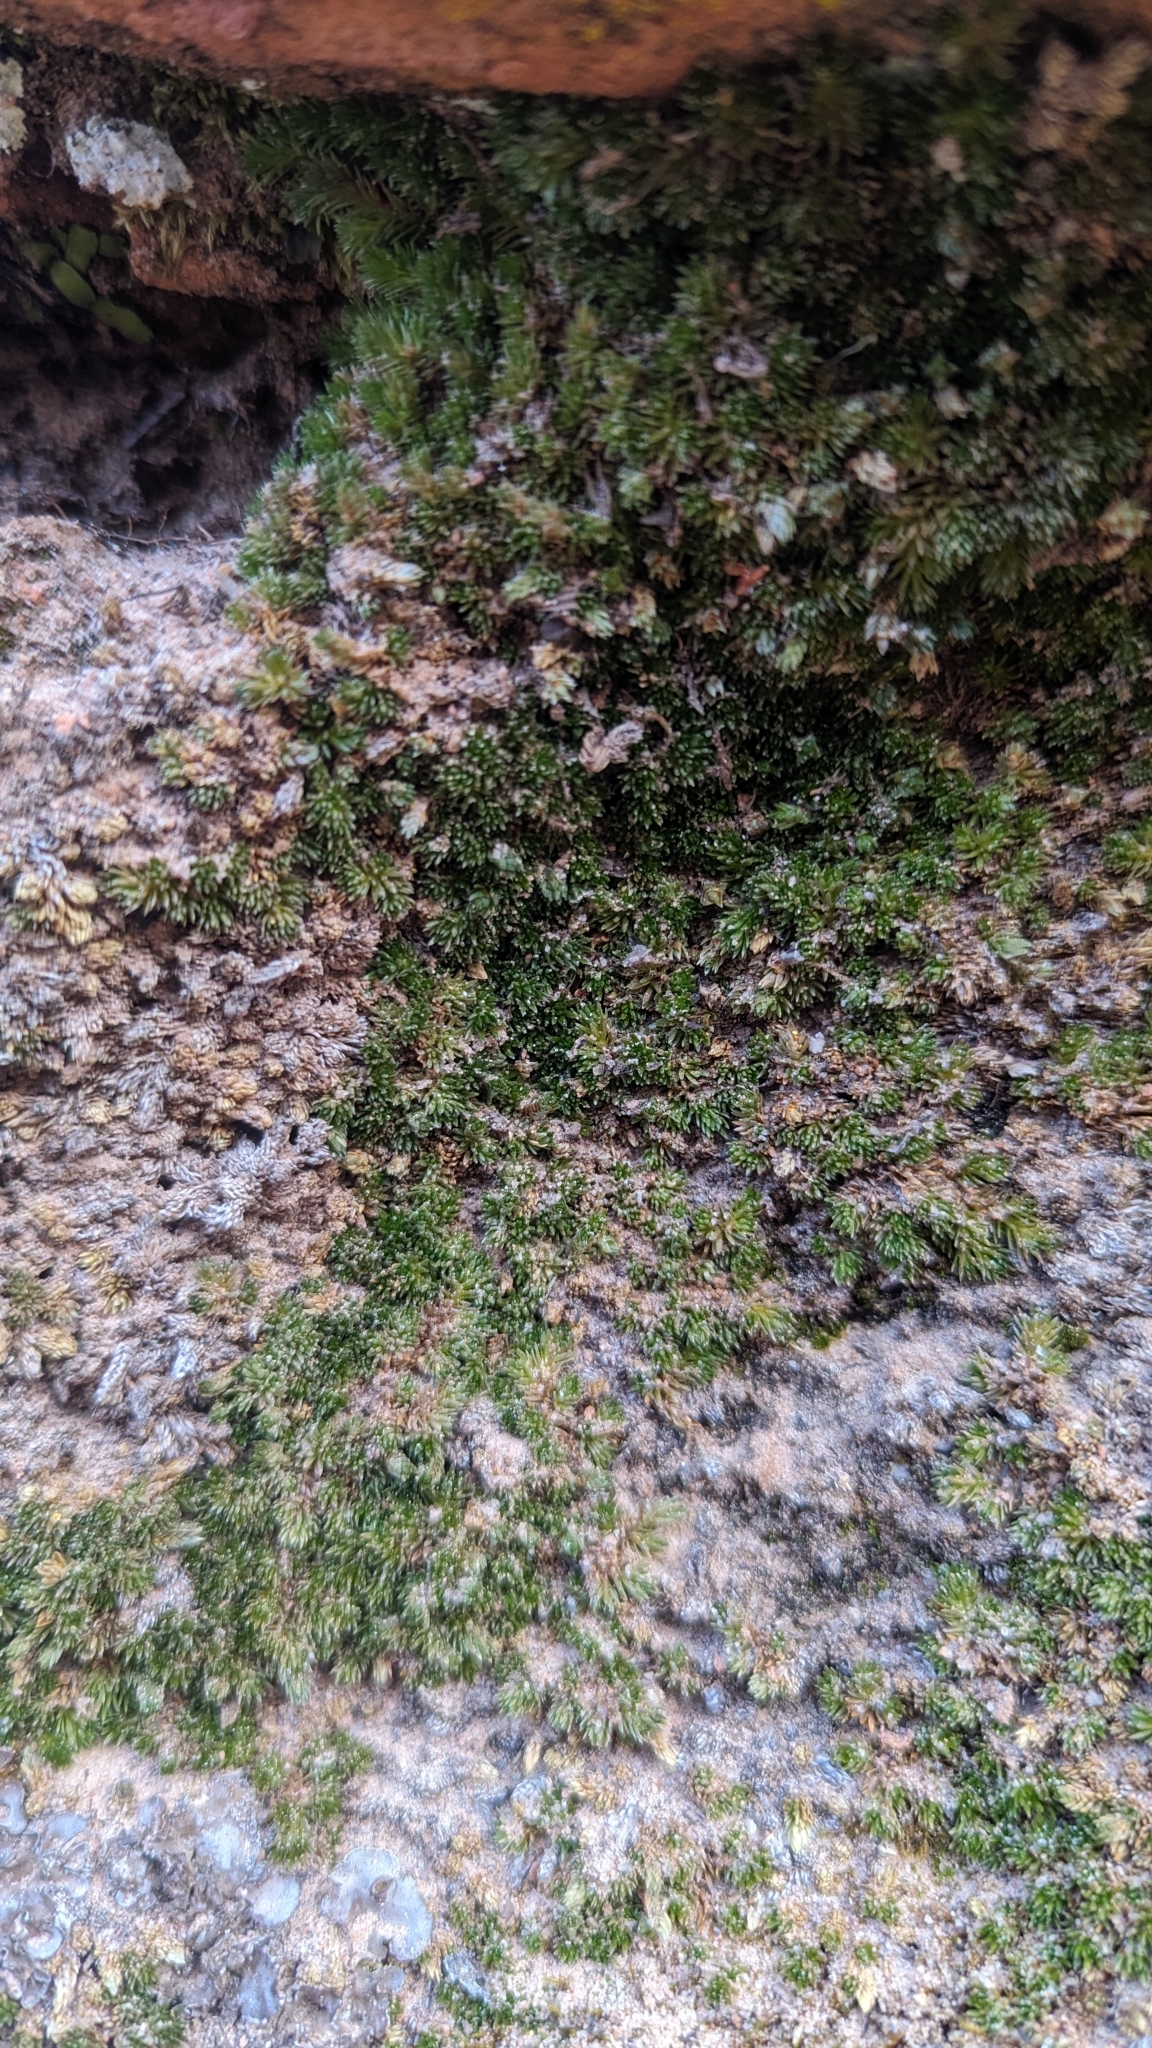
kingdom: Plantae
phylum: Tracheophyta
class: Lycopodiopsida
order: Selaginellales
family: Selaginellaceae
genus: Selaginella
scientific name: Selaginella utahensis
